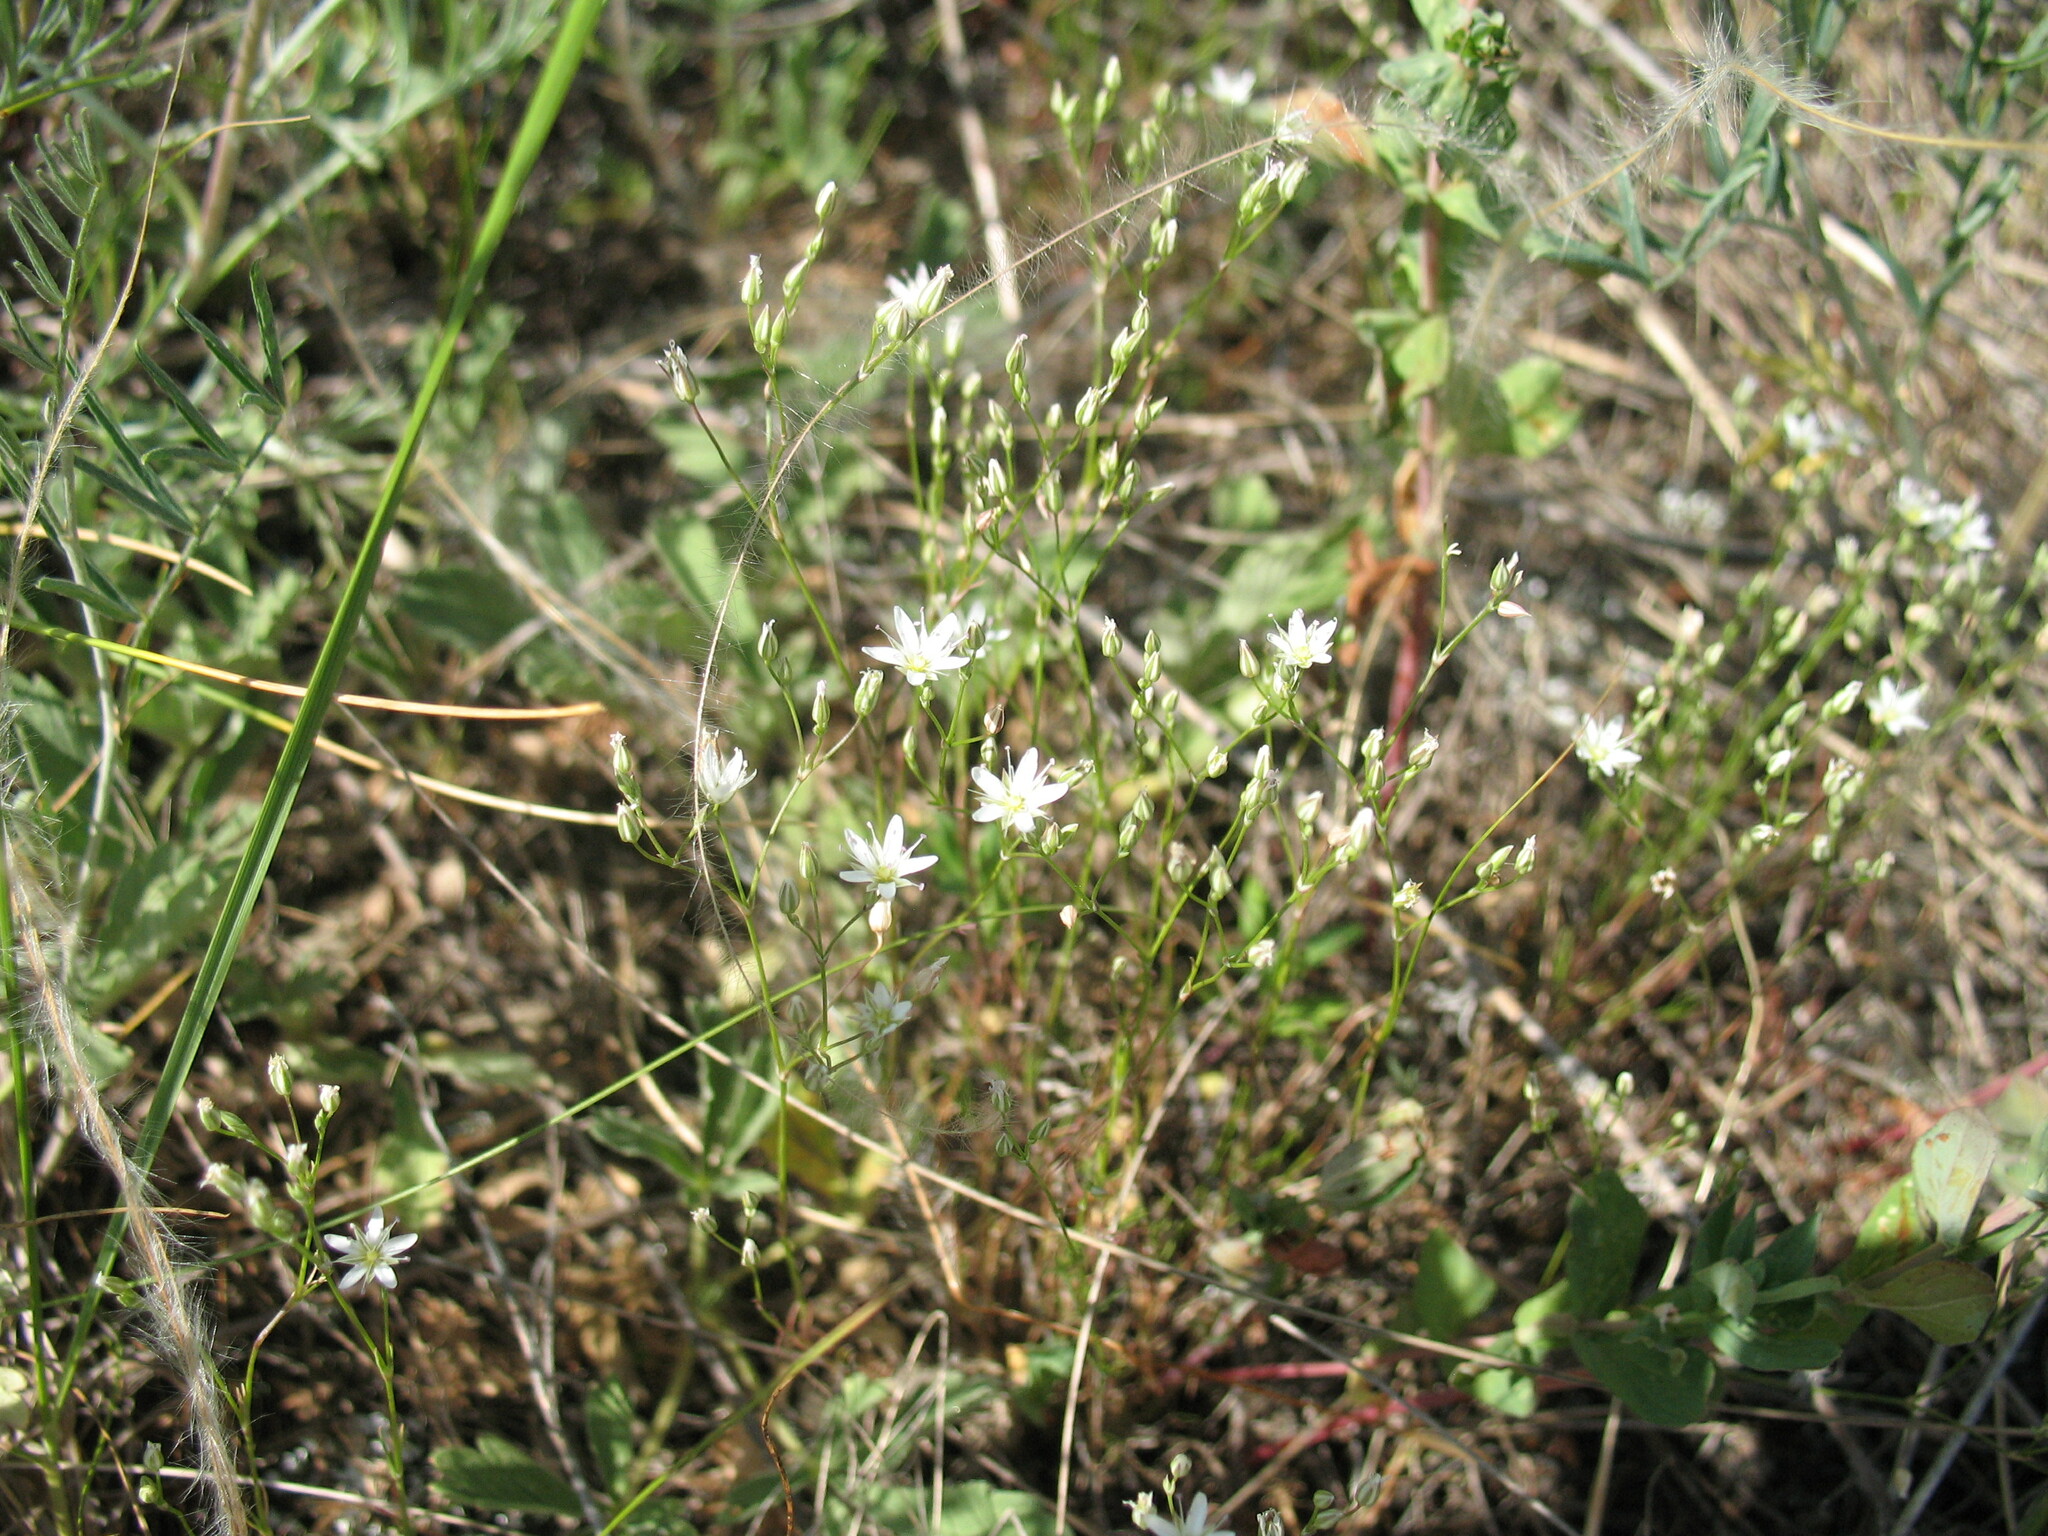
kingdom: Plantae
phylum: Tracheophyta
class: Magnoliopsida
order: Caryophyllales
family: Caryophyllaceae
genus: Minuartia
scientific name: Minuartia setacea
